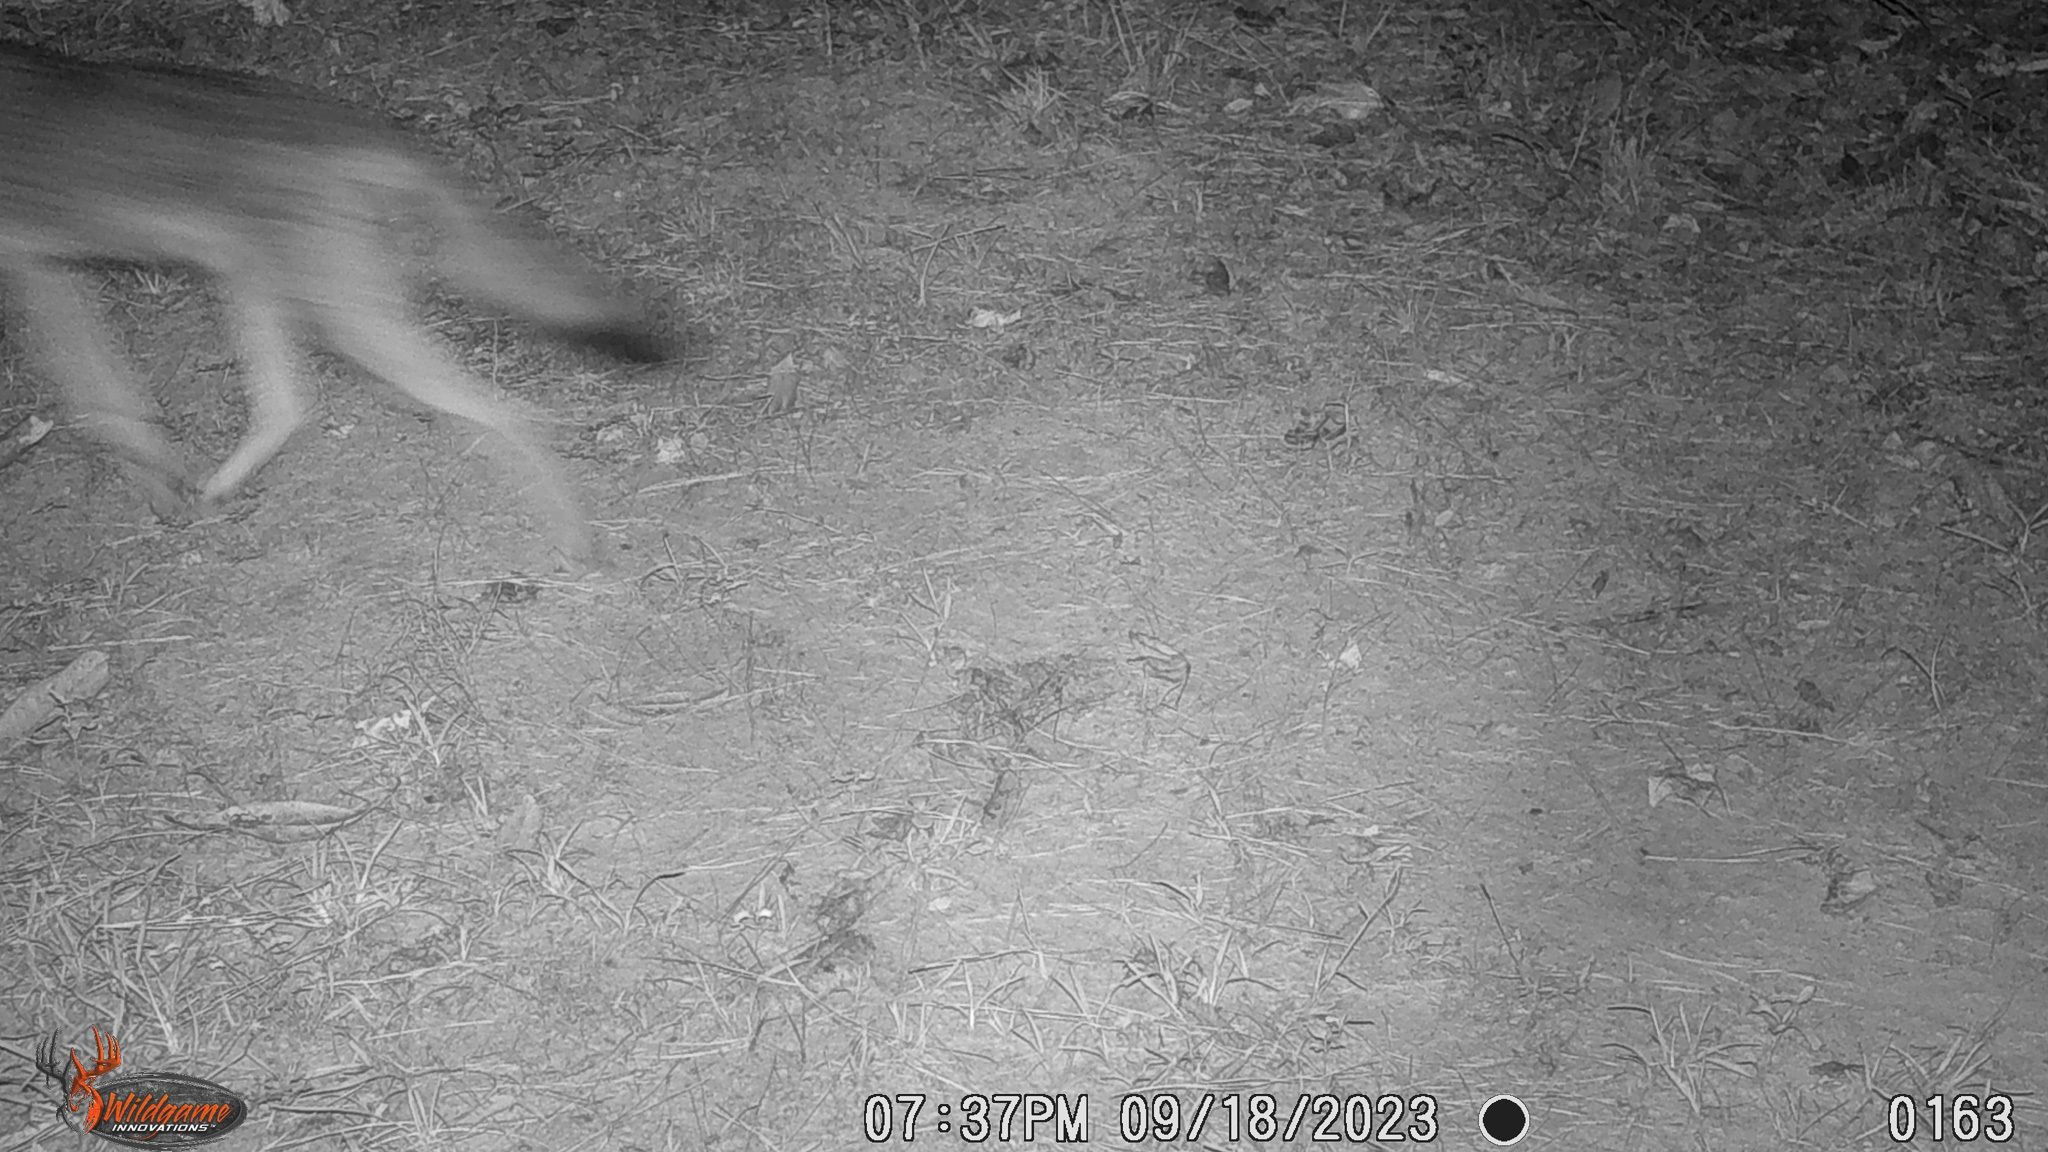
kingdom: Animalia
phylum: Chordata
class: Mammalia
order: Carnivora
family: Canidae
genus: Canis
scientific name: Canis latrans
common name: Coyote
